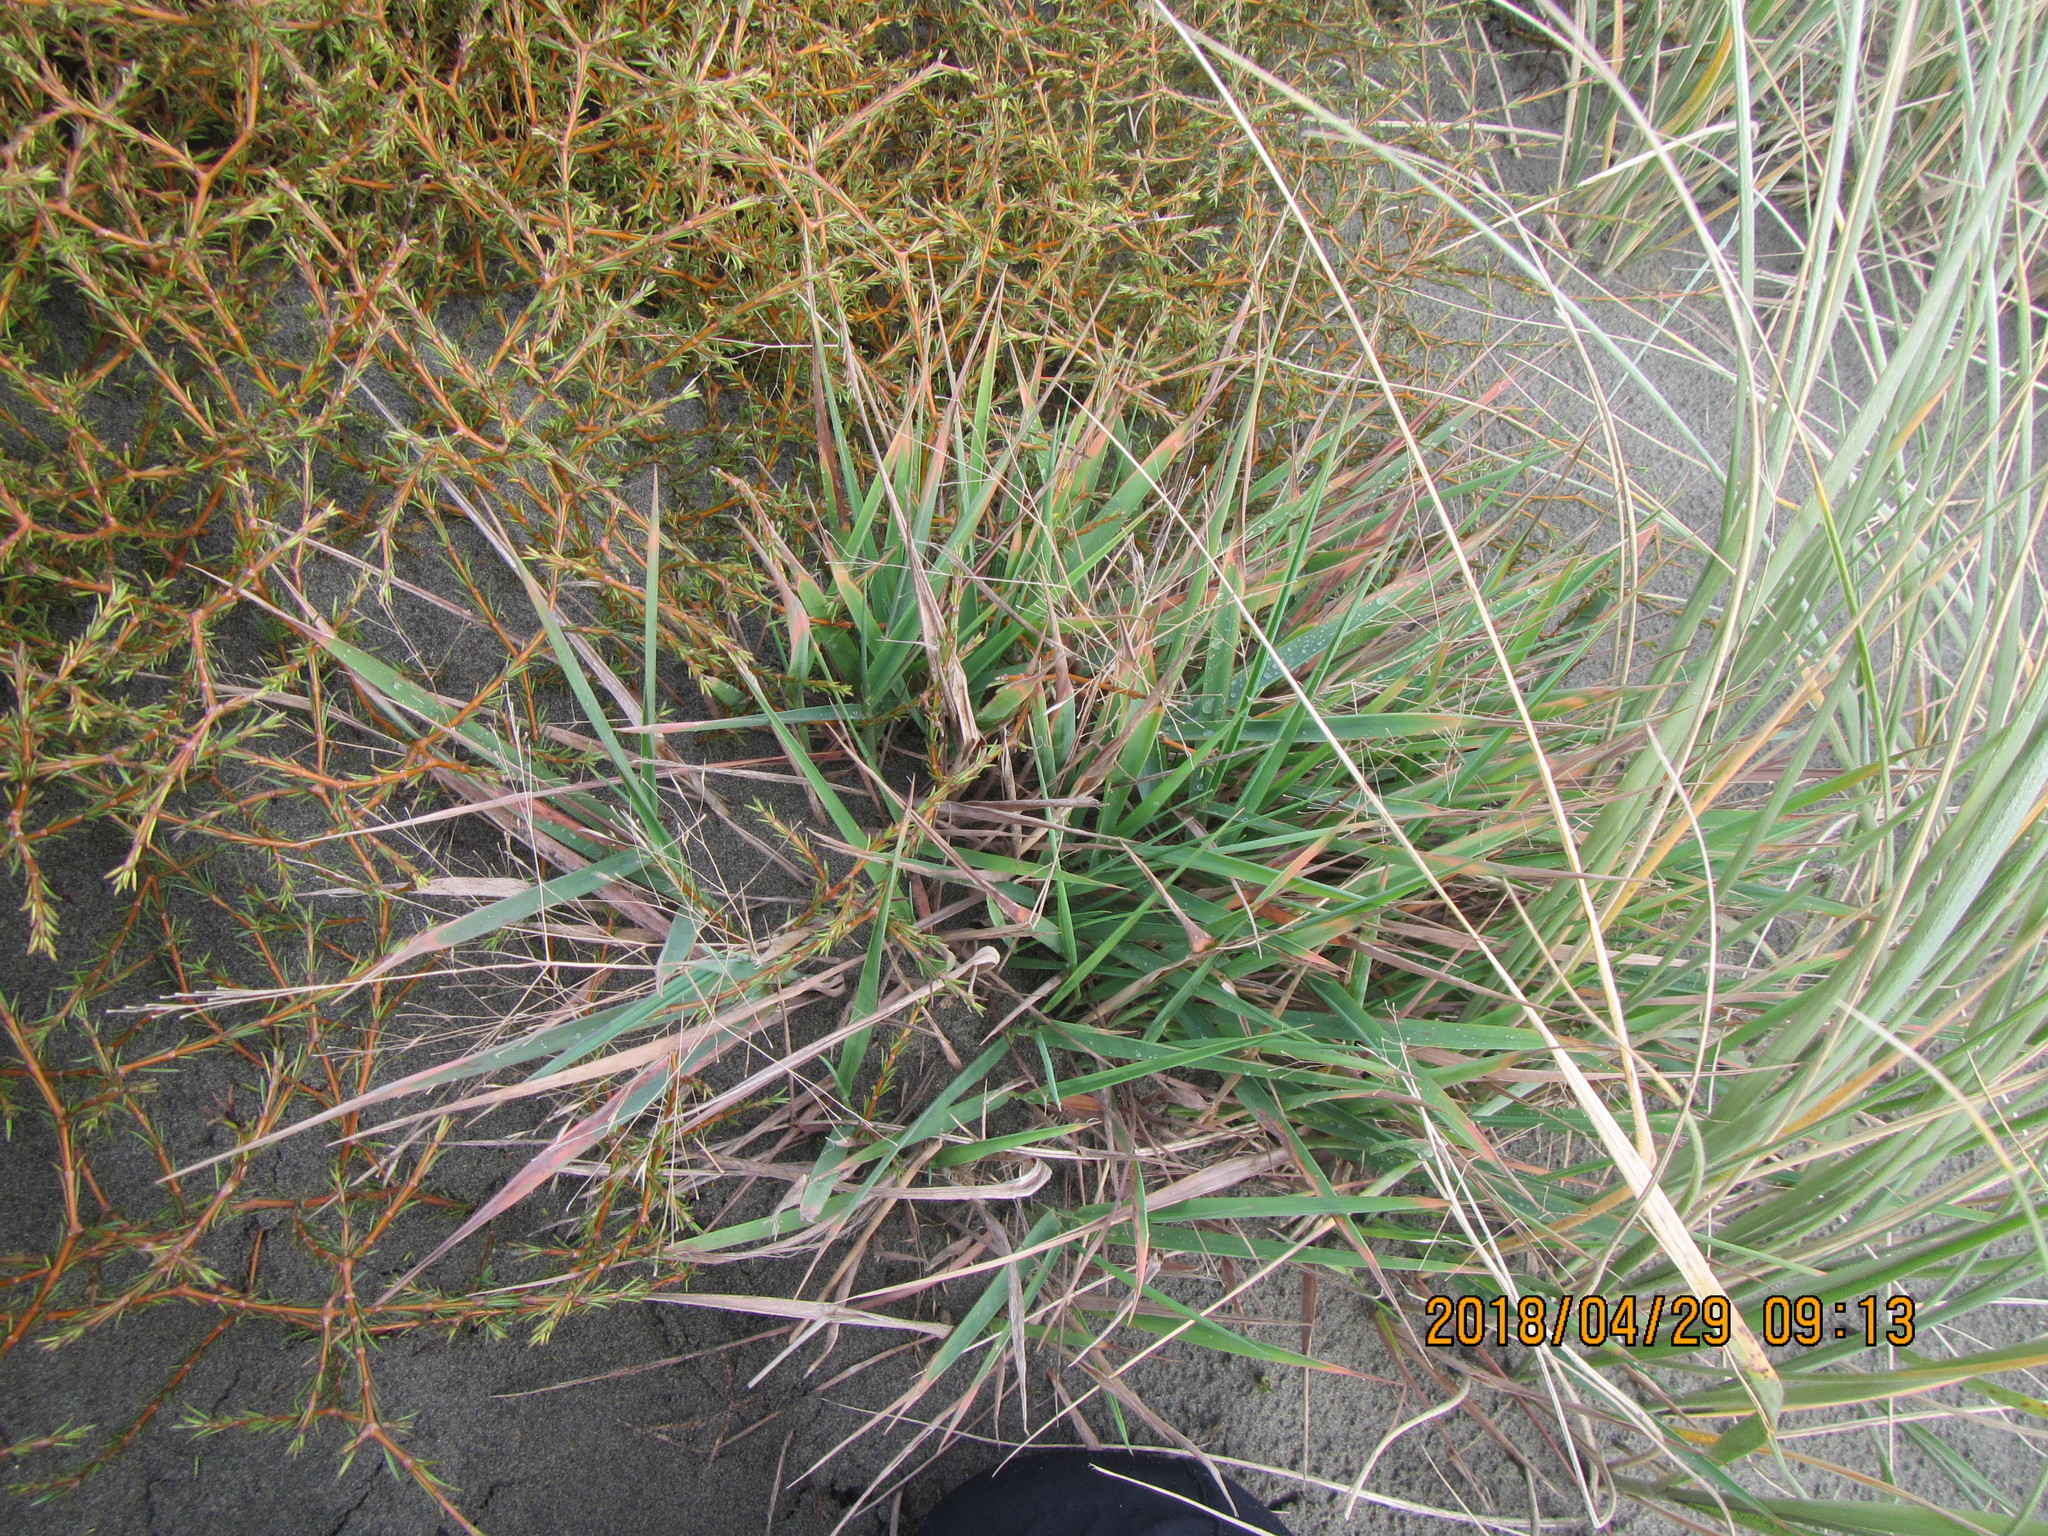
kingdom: Plantae
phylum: Tracheophyta
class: Liliopsida
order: Poales
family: Poaceae
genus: Lachnagrostis
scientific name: Lachnagrostis billardierei
